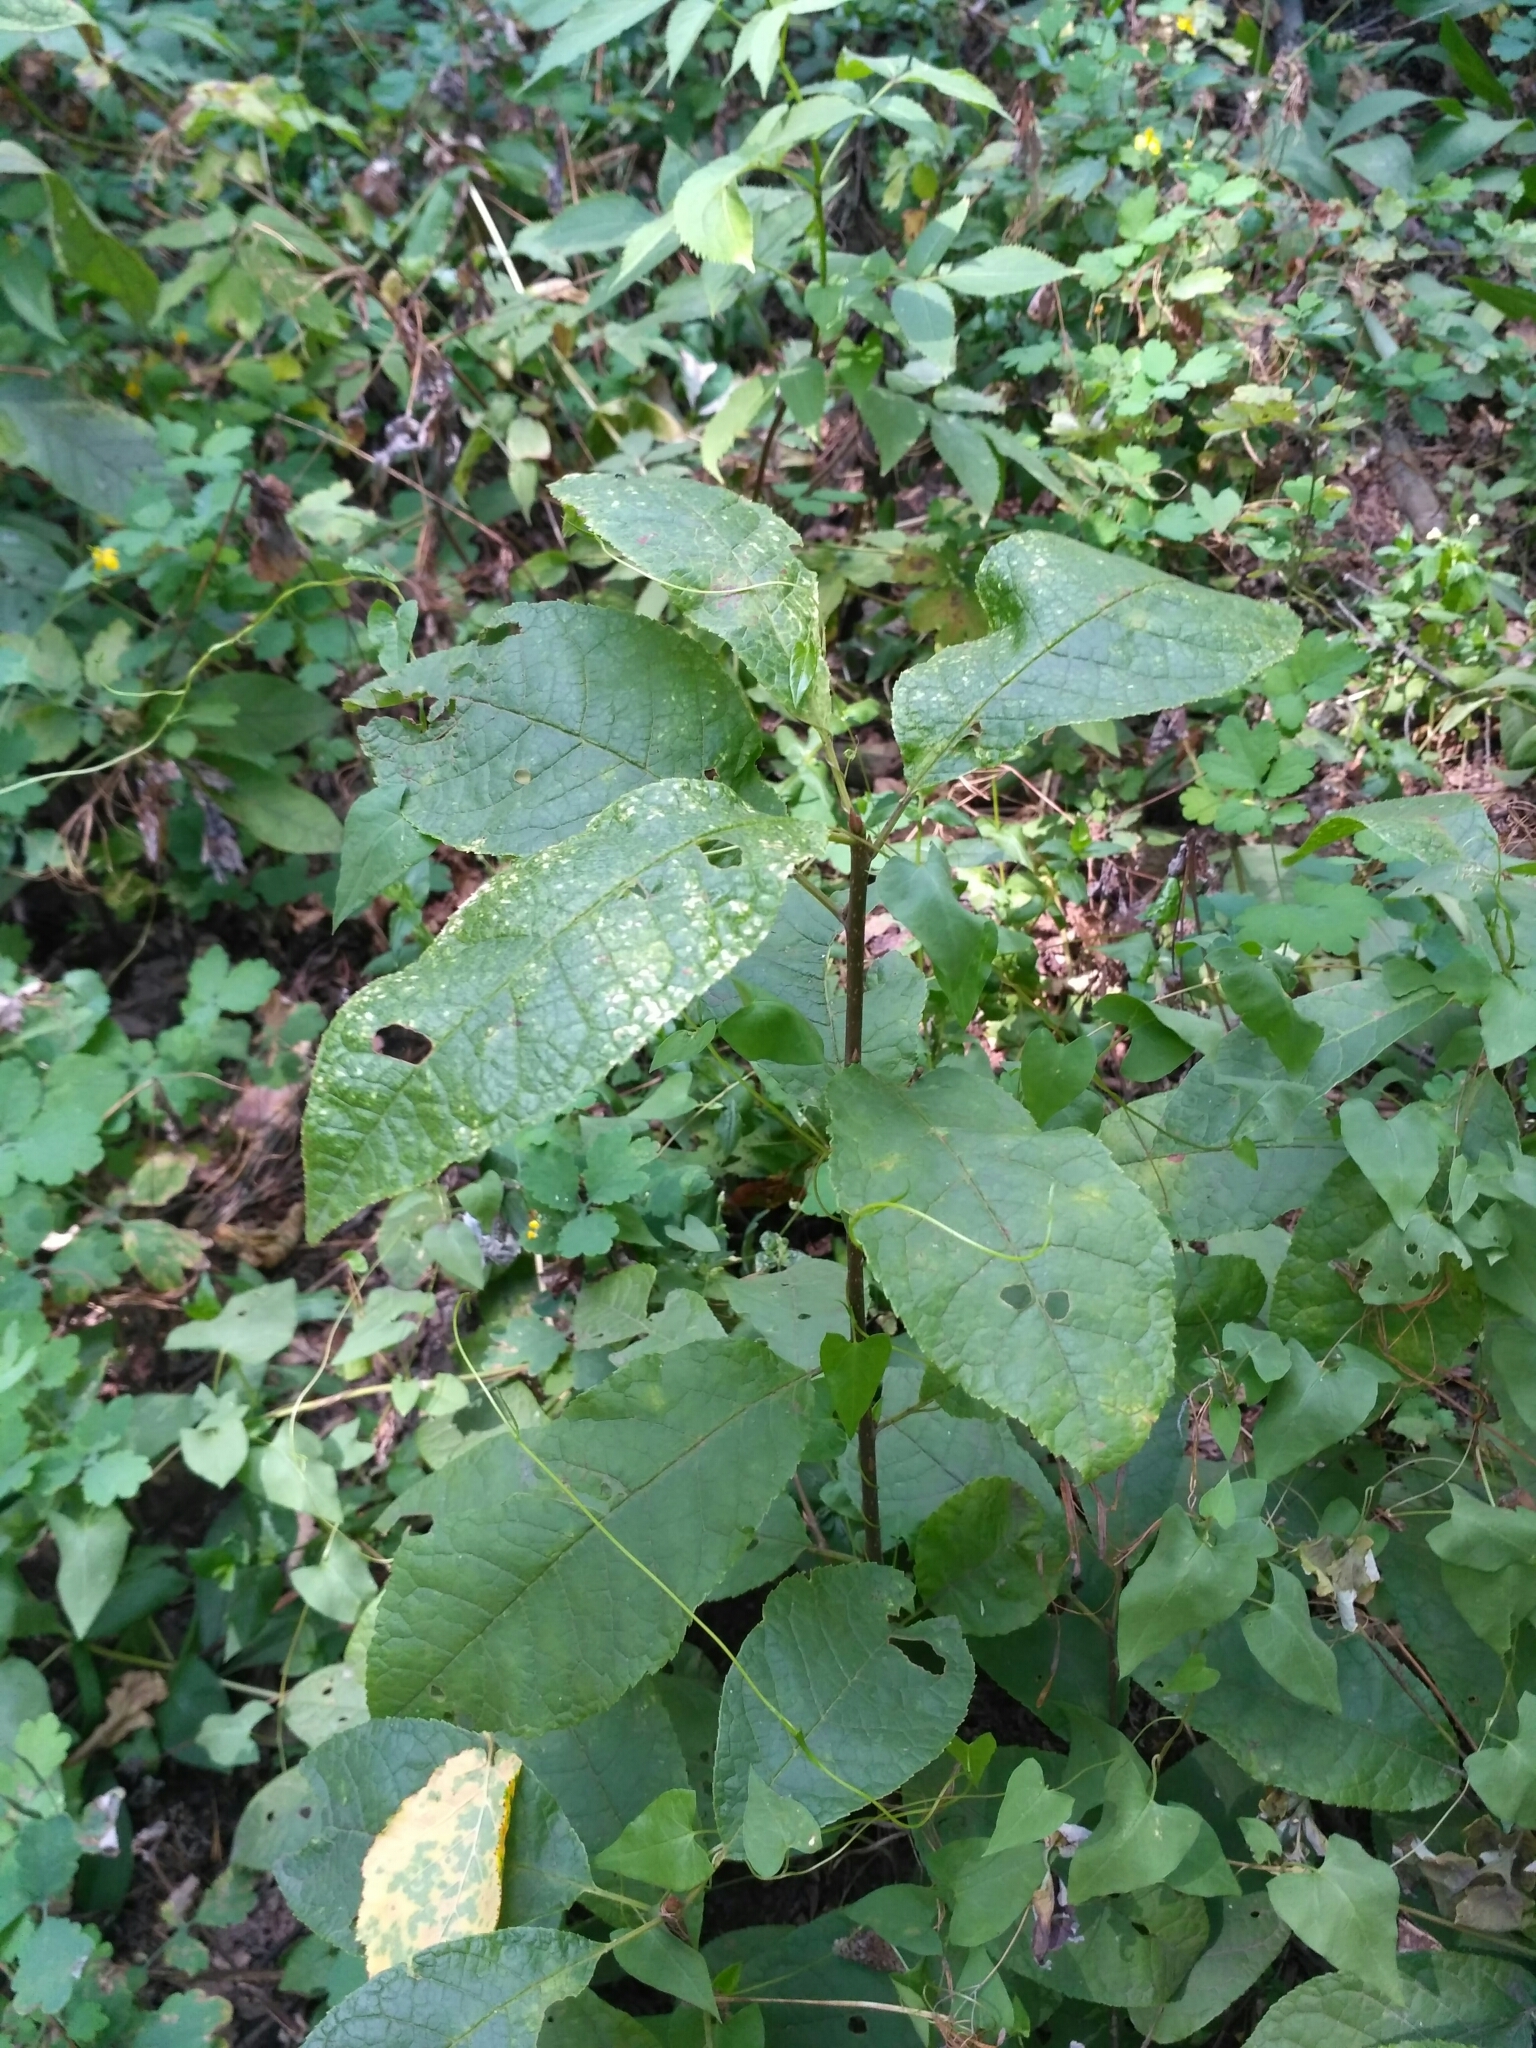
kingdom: Plantae
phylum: Tracheophyta
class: Magnoliopsida
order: Rosales
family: Rosaceae
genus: Prunus
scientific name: Prunus padus
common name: Bird cherry
